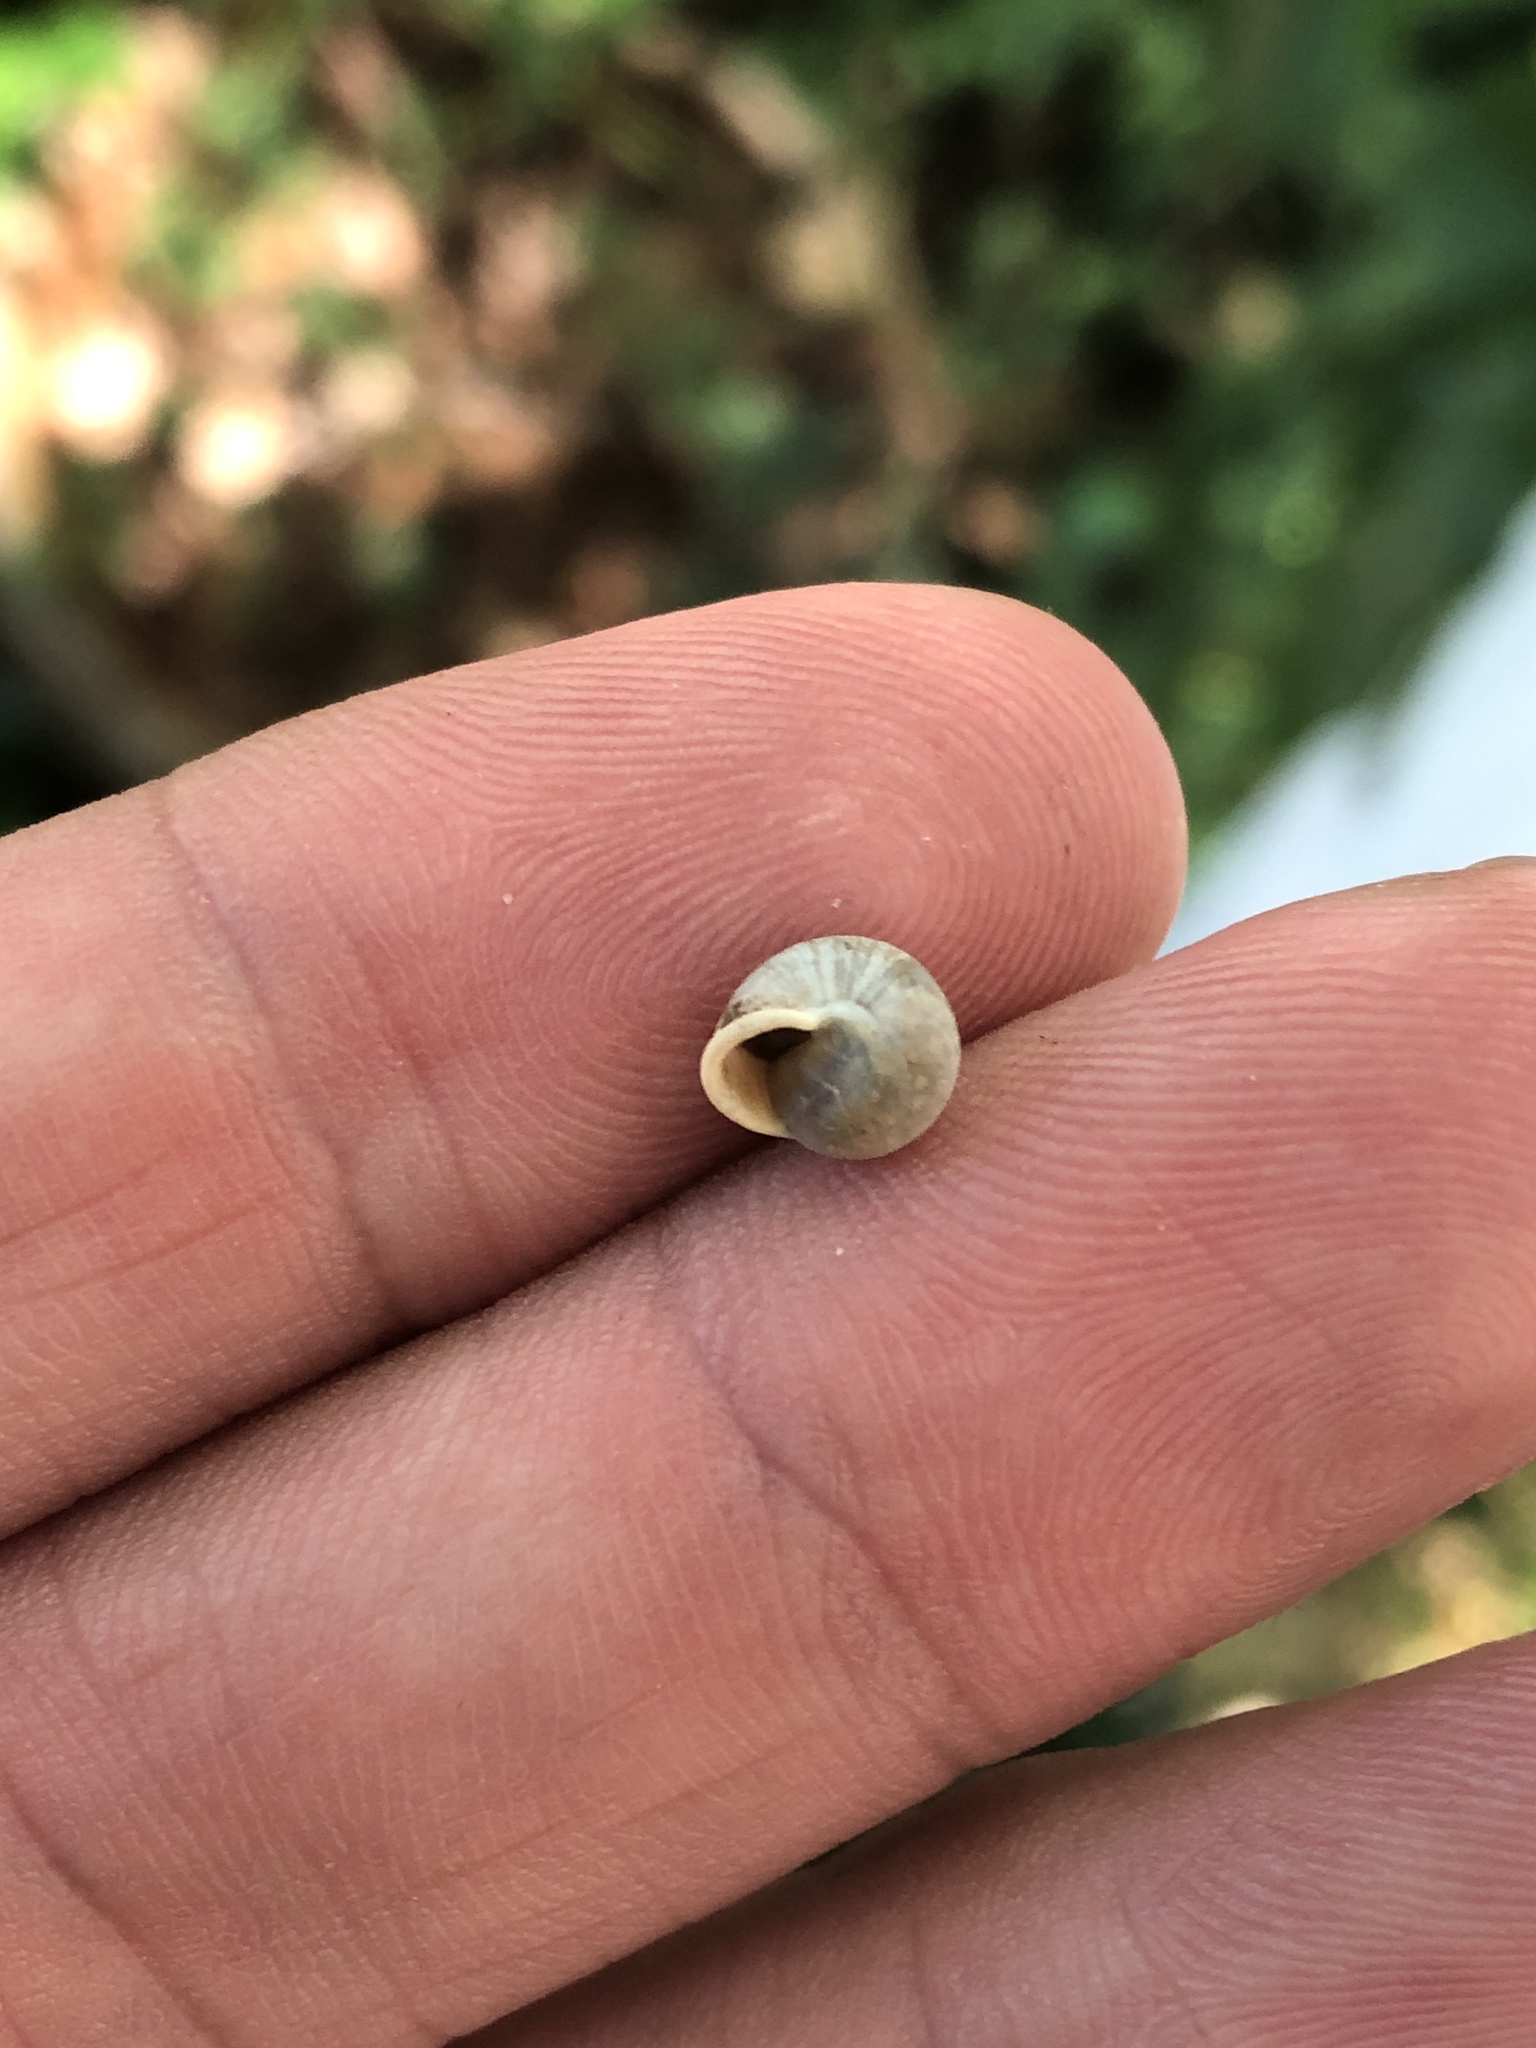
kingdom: Animalia
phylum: Mollusca
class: Gastropoda
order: Cycloneritida
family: Helicinidae
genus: Helicina
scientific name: Helicina orbiculata
